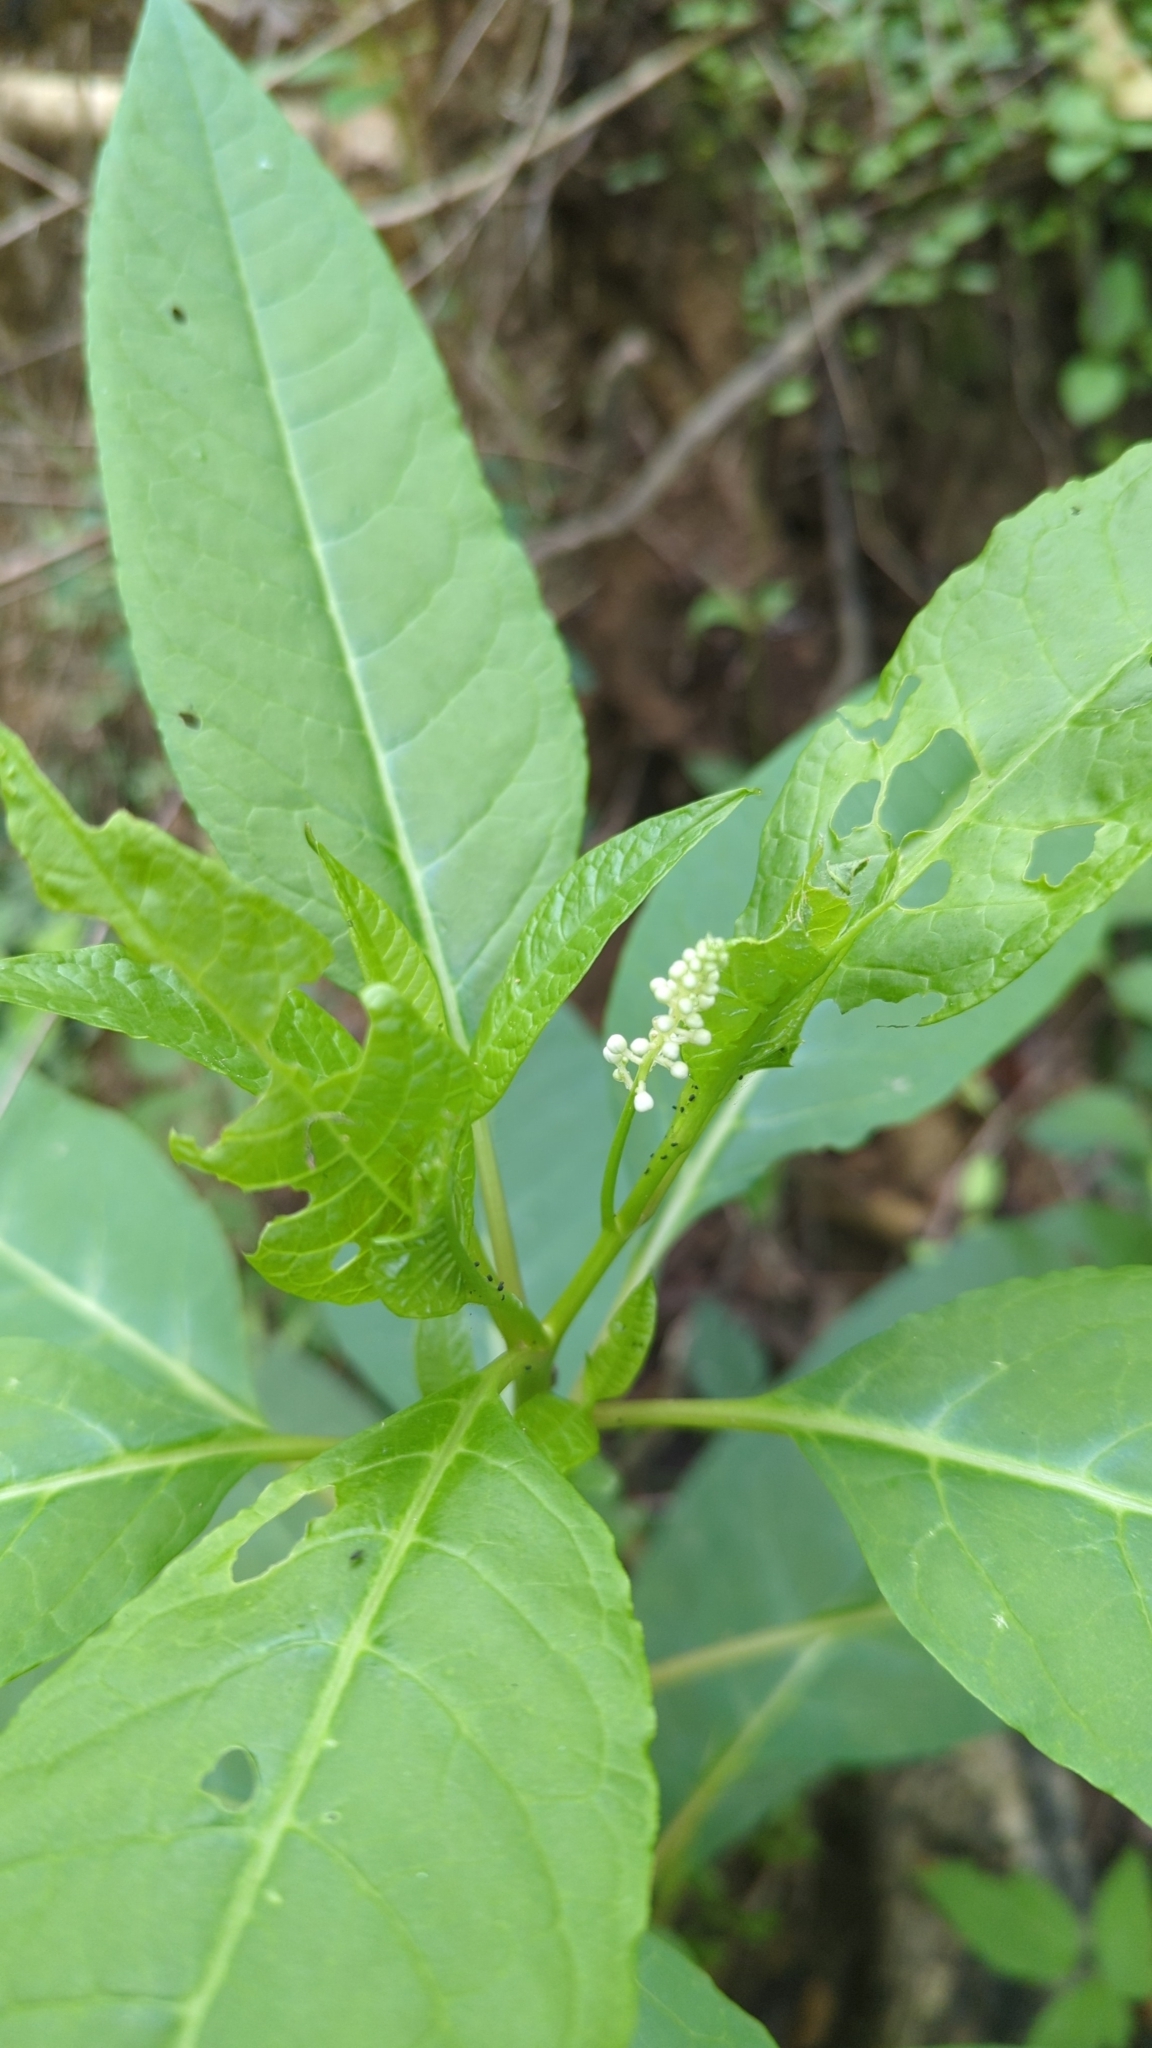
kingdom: Plantae
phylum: Tracheophyta
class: Magnoliopsida
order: Caryophyllales
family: Phytolaccaceae
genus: Phytolacca
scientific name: Phytolacca americana
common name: American pokeweed
